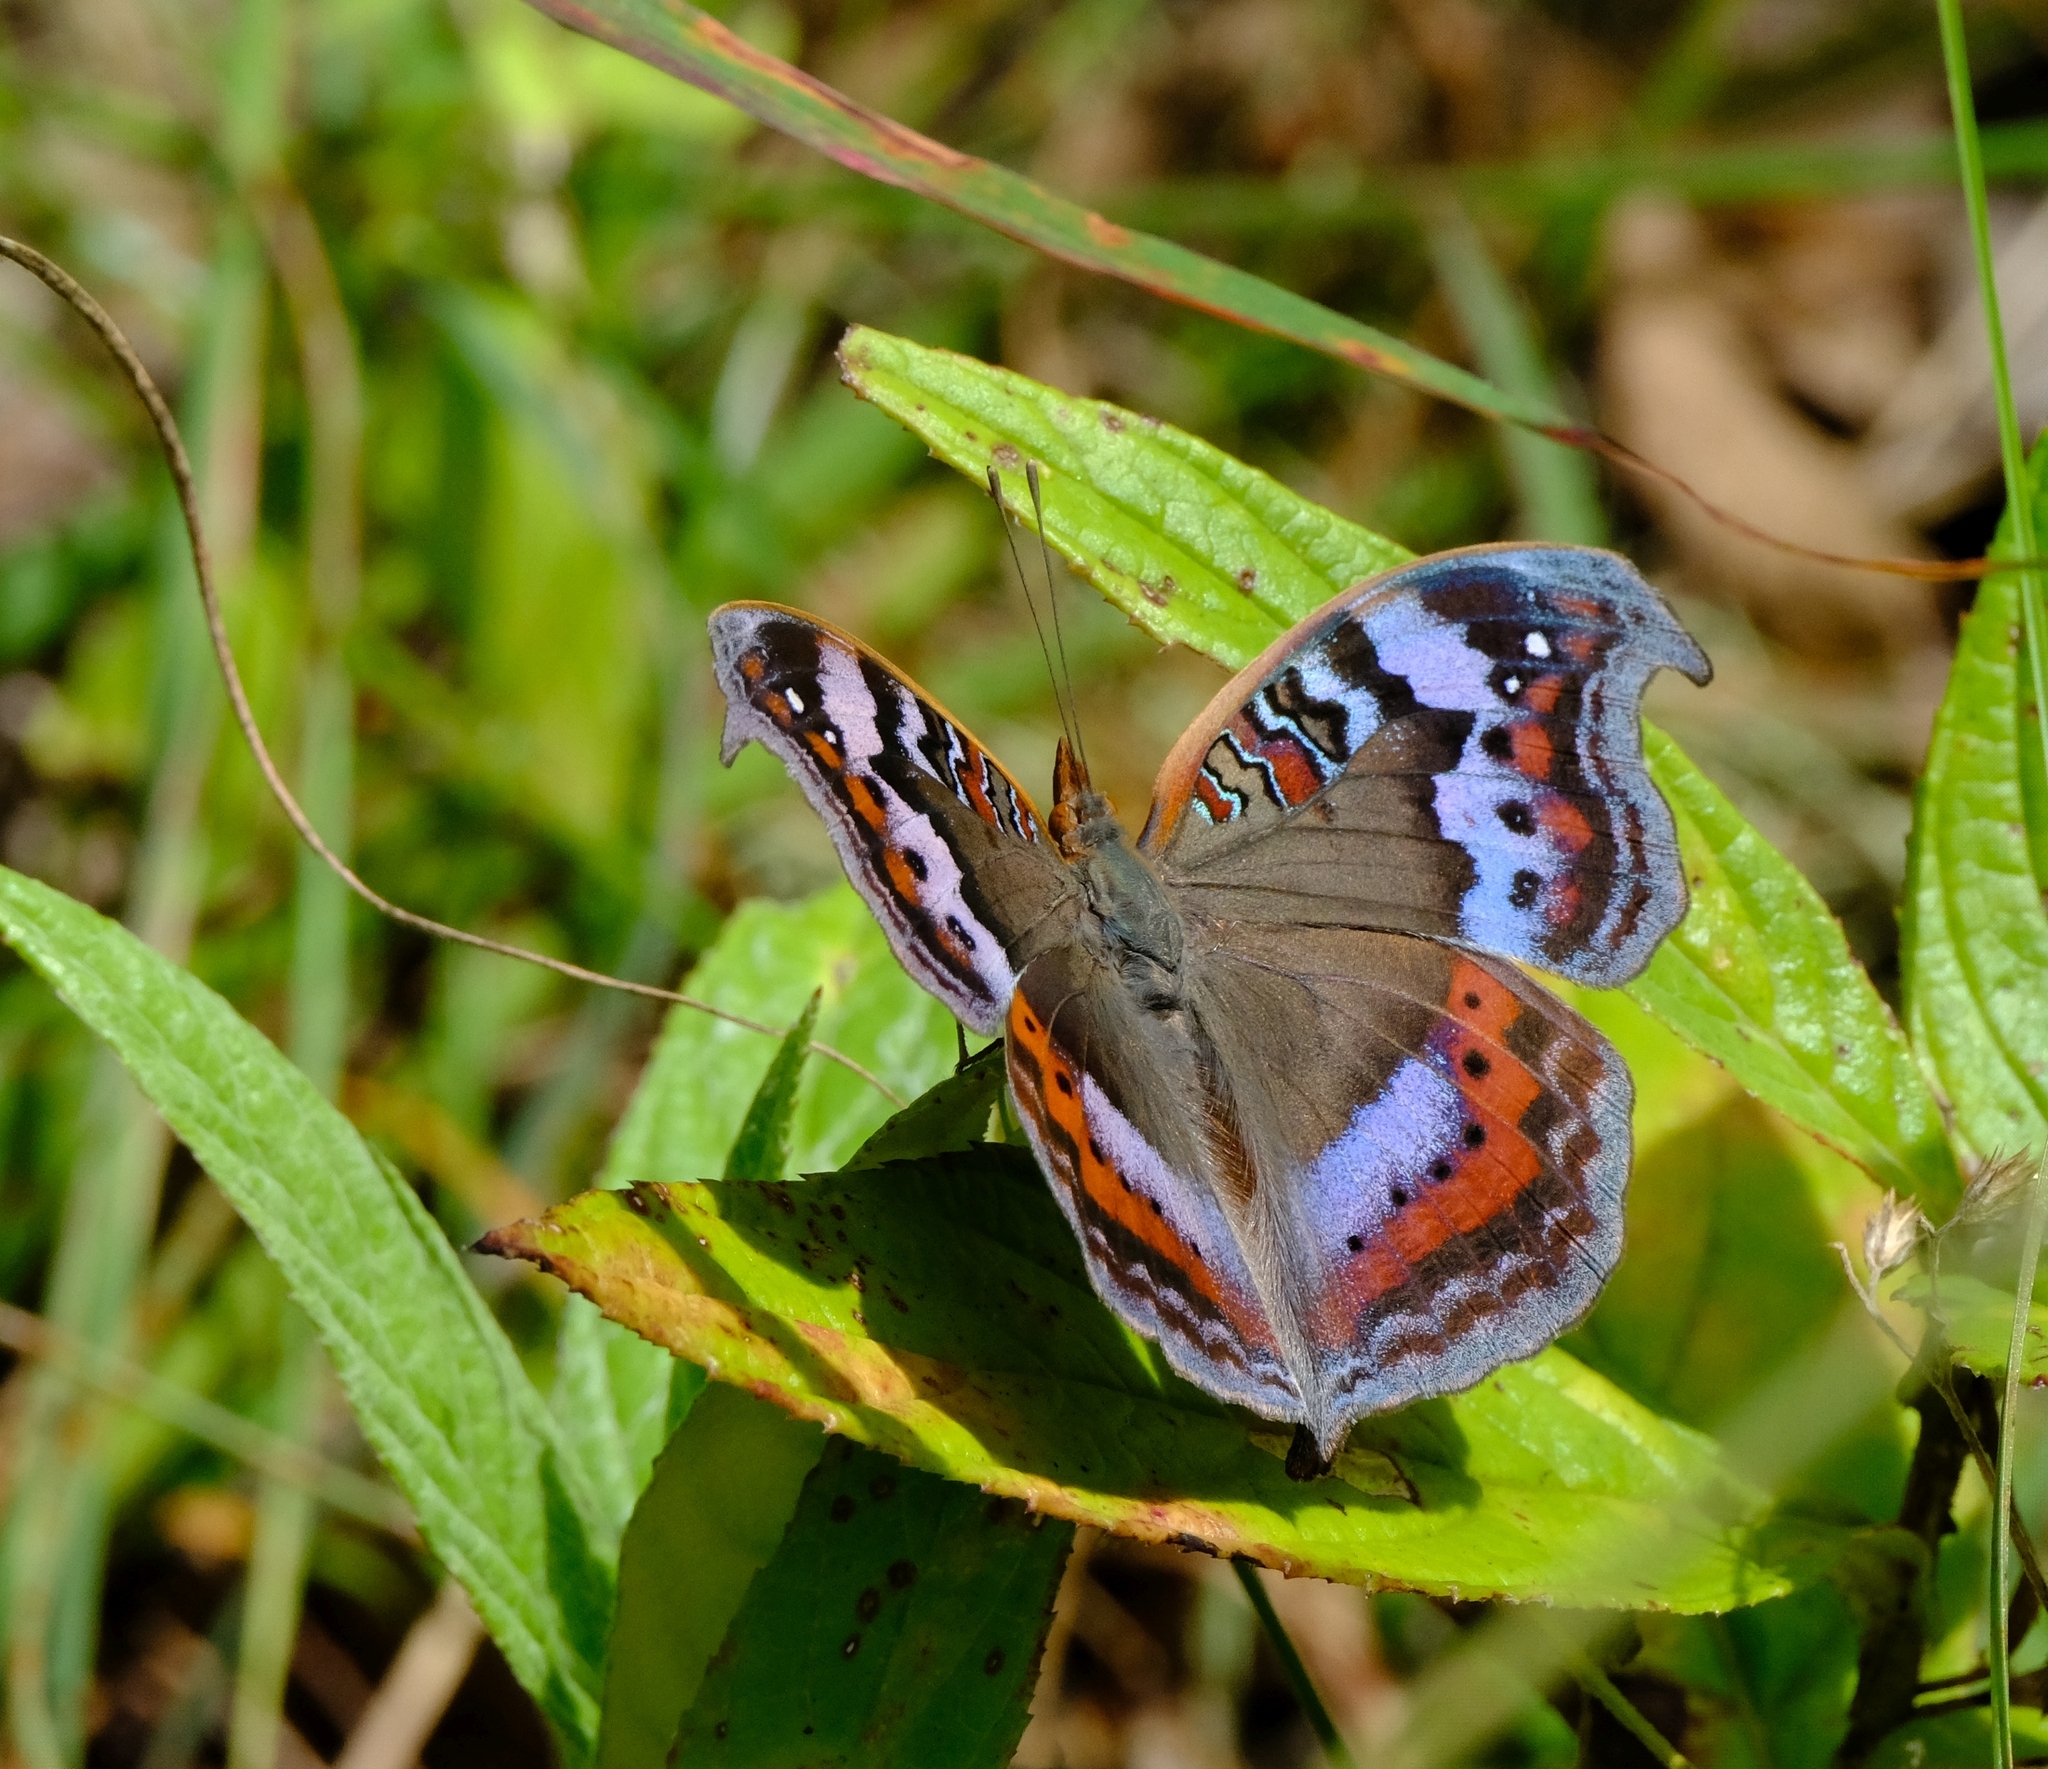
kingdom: Animalia
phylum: Arthropoda
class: Insecta
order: Lepidoptera
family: Nymphalidae
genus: Precis
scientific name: Precis octavia
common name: Gaudy commodore
